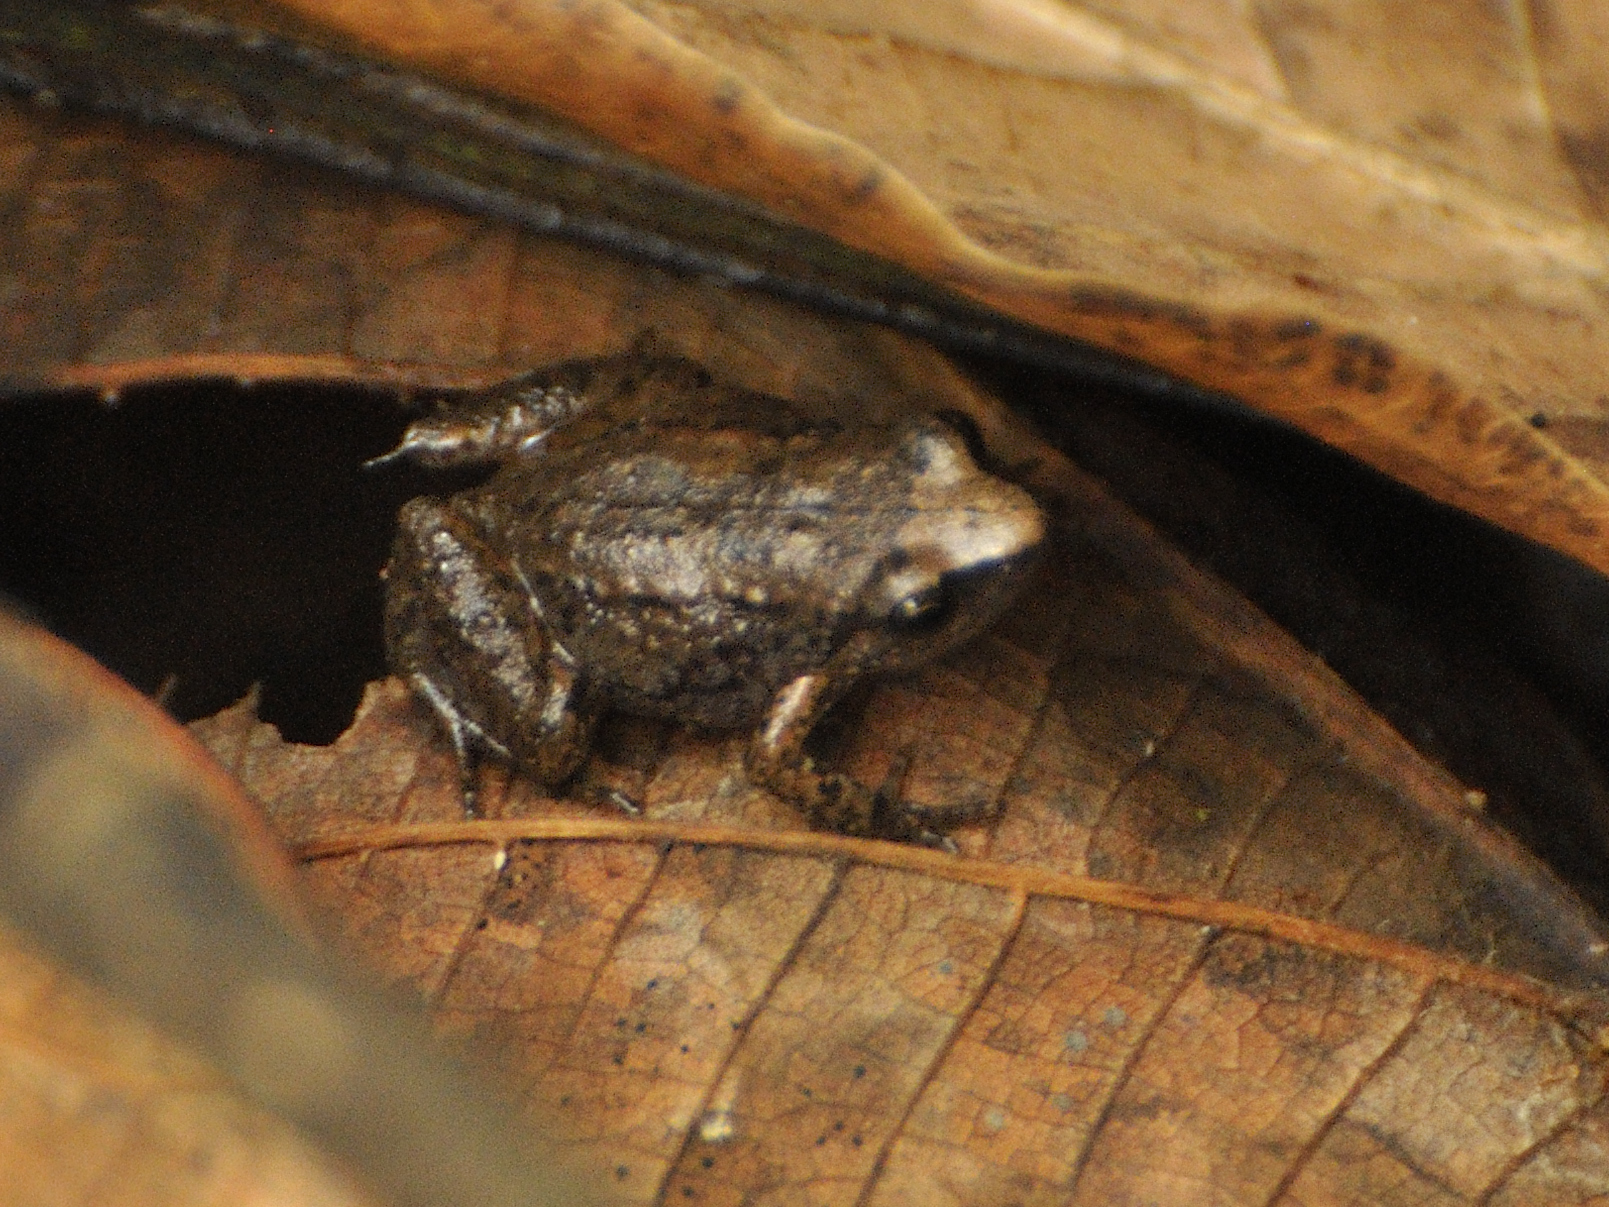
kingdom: Animalia
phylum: Chordata
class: Amphibia
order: Anura
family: Arthroleptidae
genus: Arthroleptis
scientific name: Arthroleptis xenodactyloides
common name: Chirinda screeching frog
